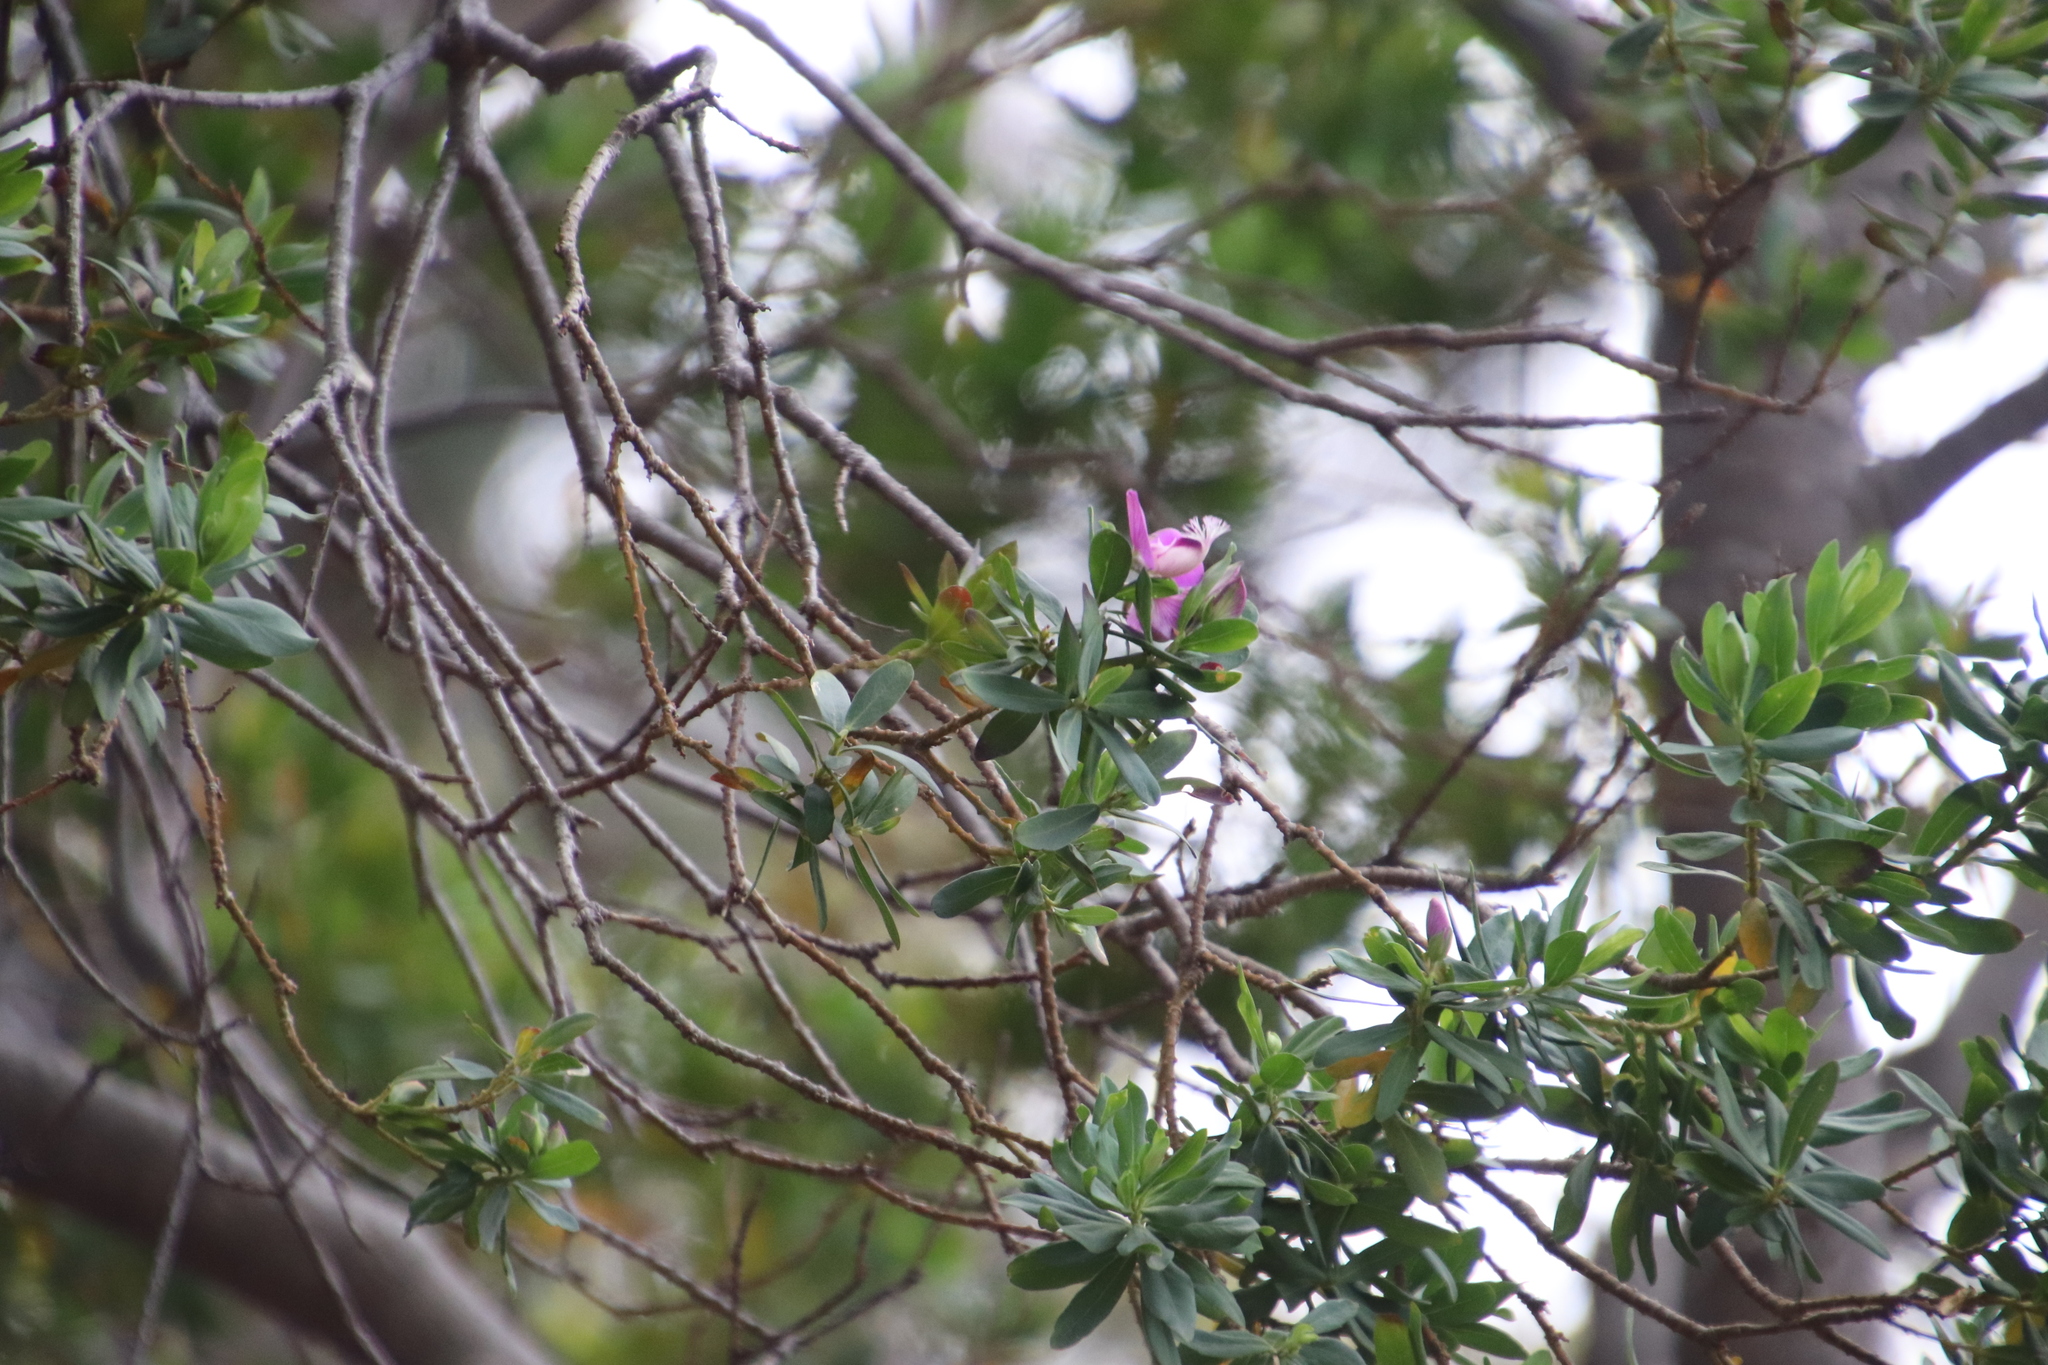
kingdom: Plantae
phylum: Tracheophyta
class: Magnoliopsida
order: Fabales
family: Polygalaceae
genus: Polygala
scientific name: Polygala myrtifolia
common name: Myrtle-leaf milkwort
